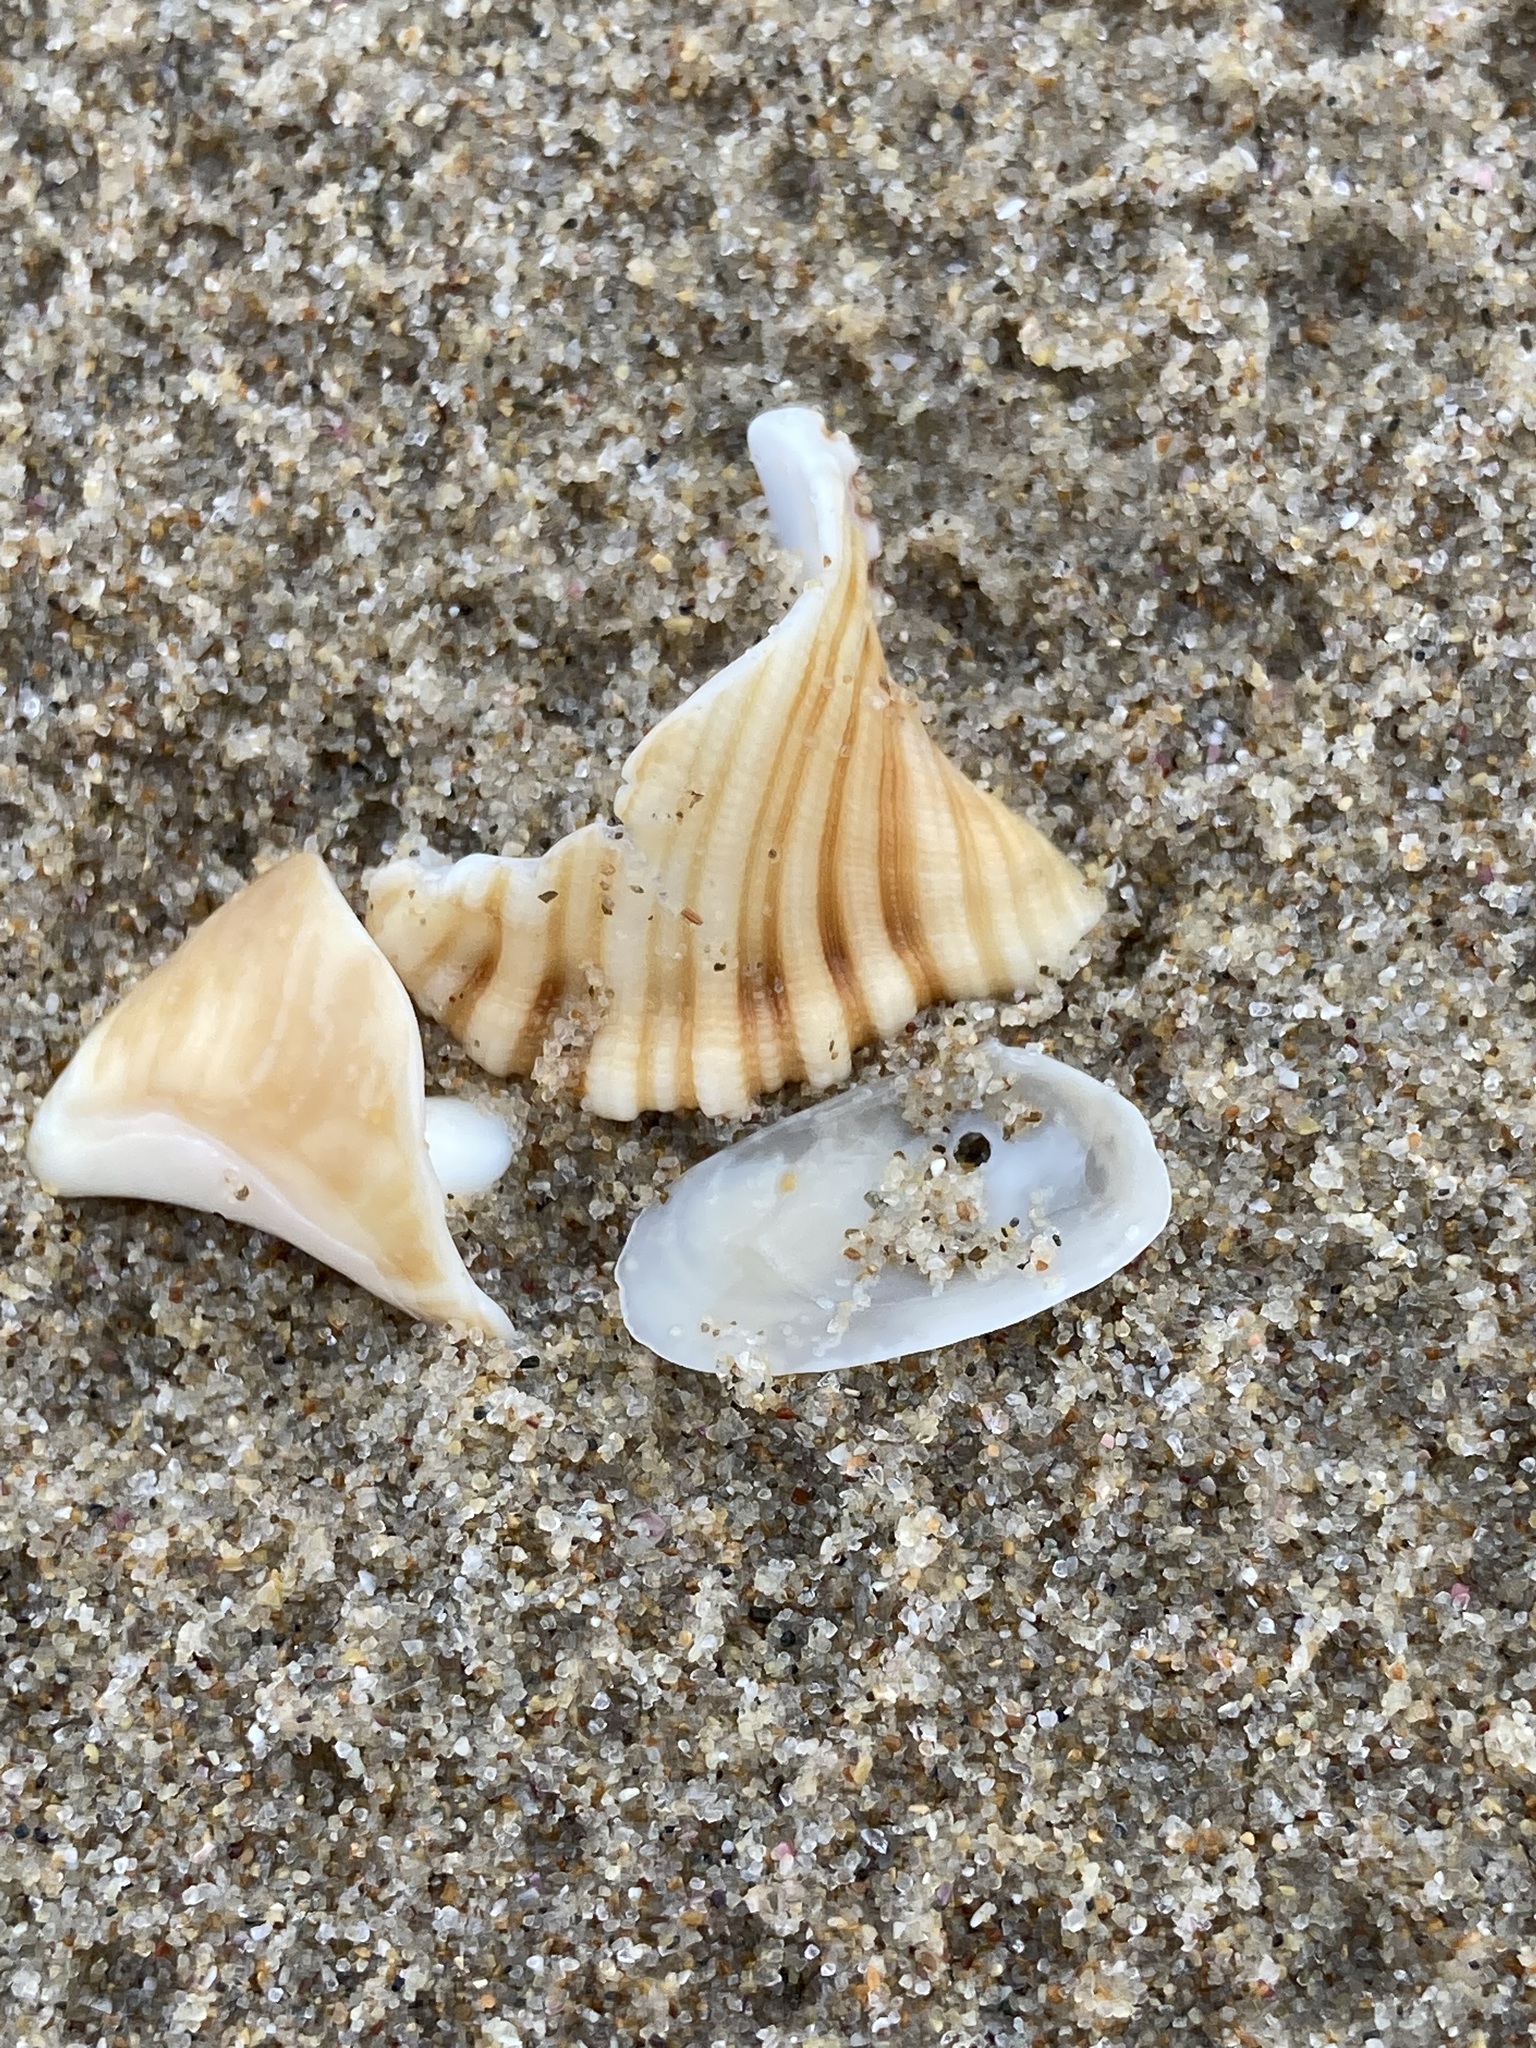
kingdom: Animalia
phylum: Mollusca
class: Gastropoda
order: Littorinimorpha
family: Cymatiidae
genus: Cabestana
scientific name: Cabestana spengleri
